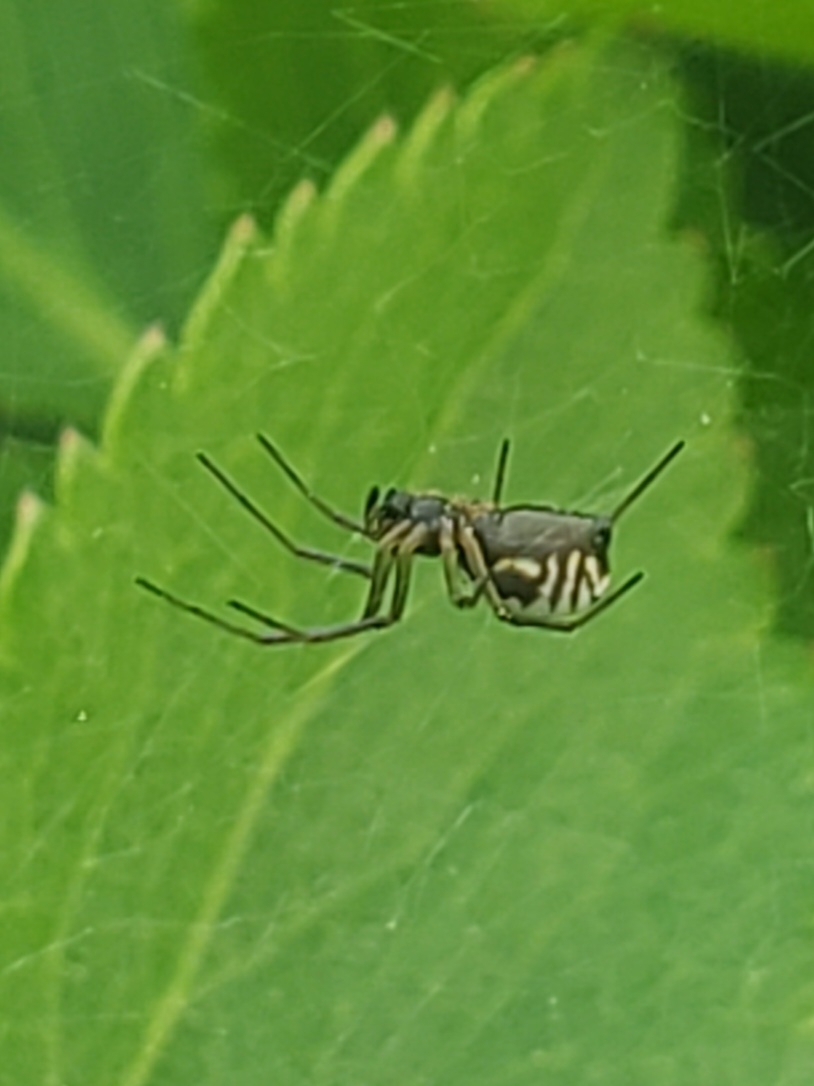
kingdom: Animalia
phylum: Arthropoda
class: Arachnida
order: Araneae
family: Linyphiidae
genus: Frontinella
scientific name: Frontinella pyramitela
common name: Bowl-and-doily spider
